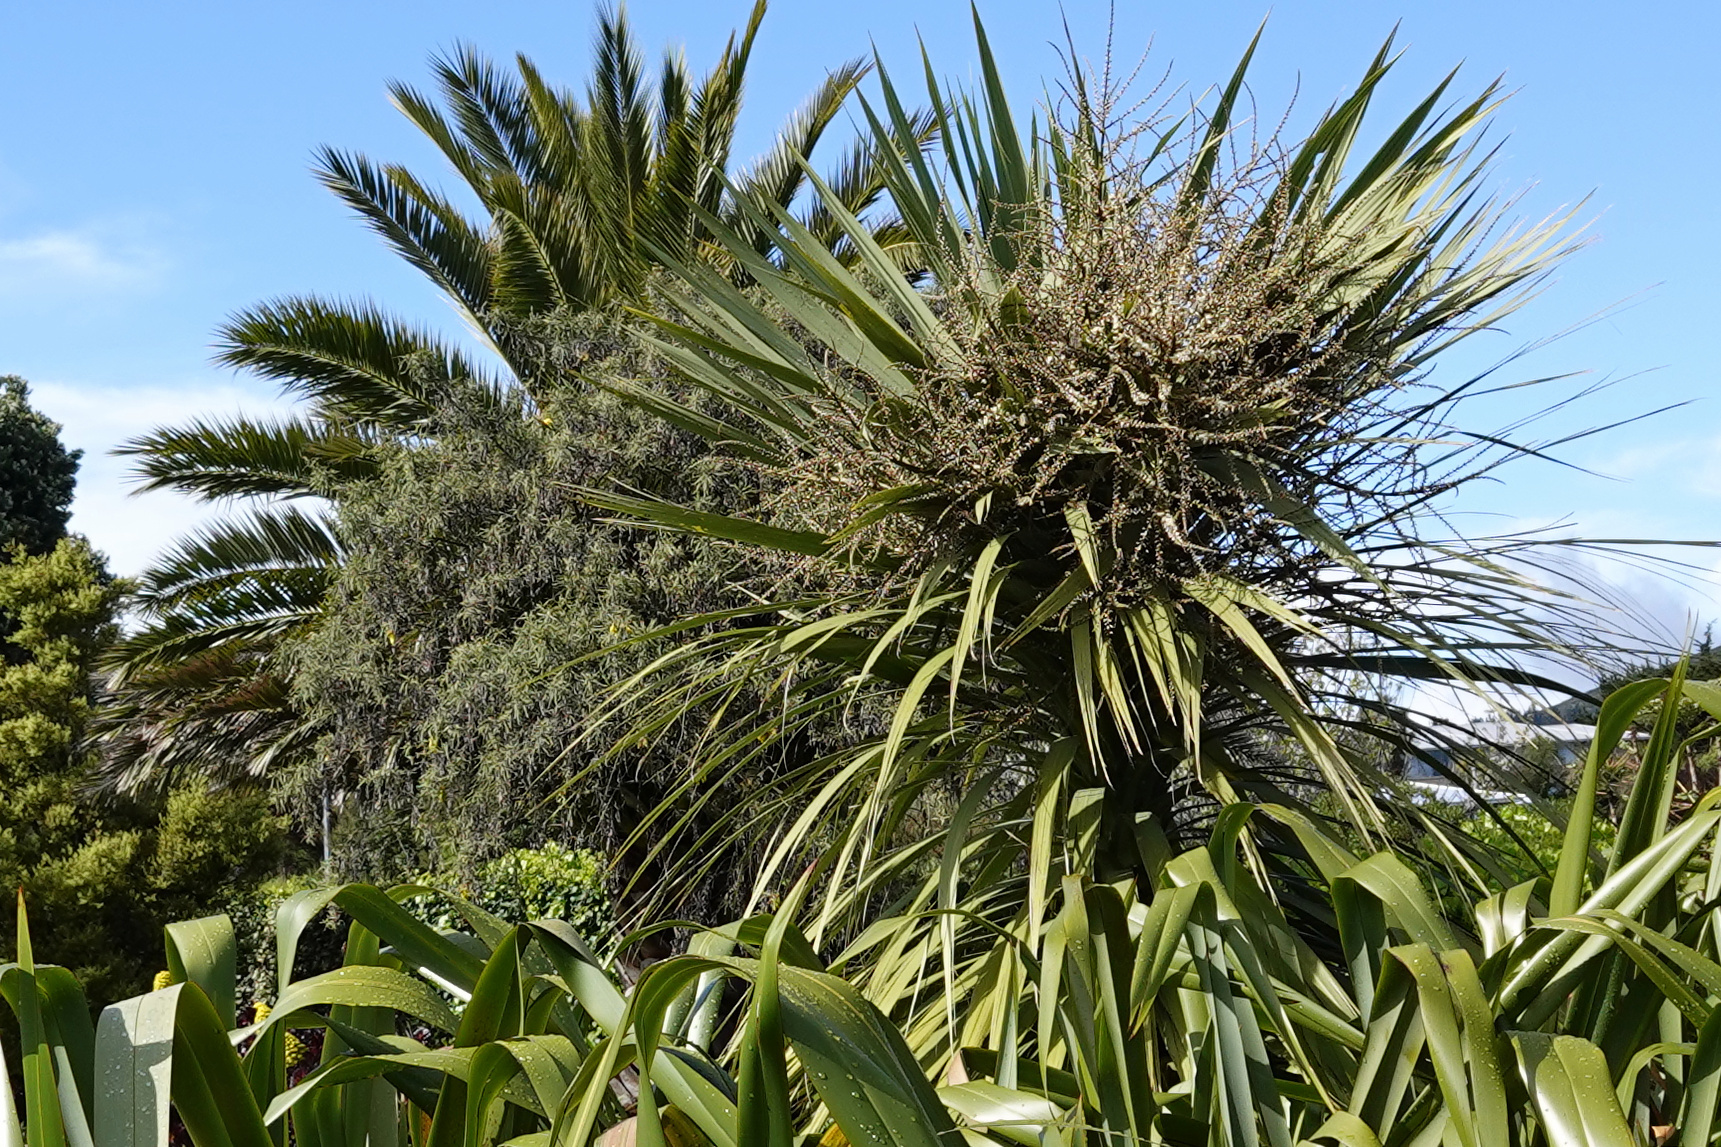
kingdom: Plantae
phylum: Tracheophyta
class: Liliopsida
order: Asparagales
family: Asparagaceae
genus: Cordyline
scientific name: Cordyline australis
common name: Cabbage-palm
